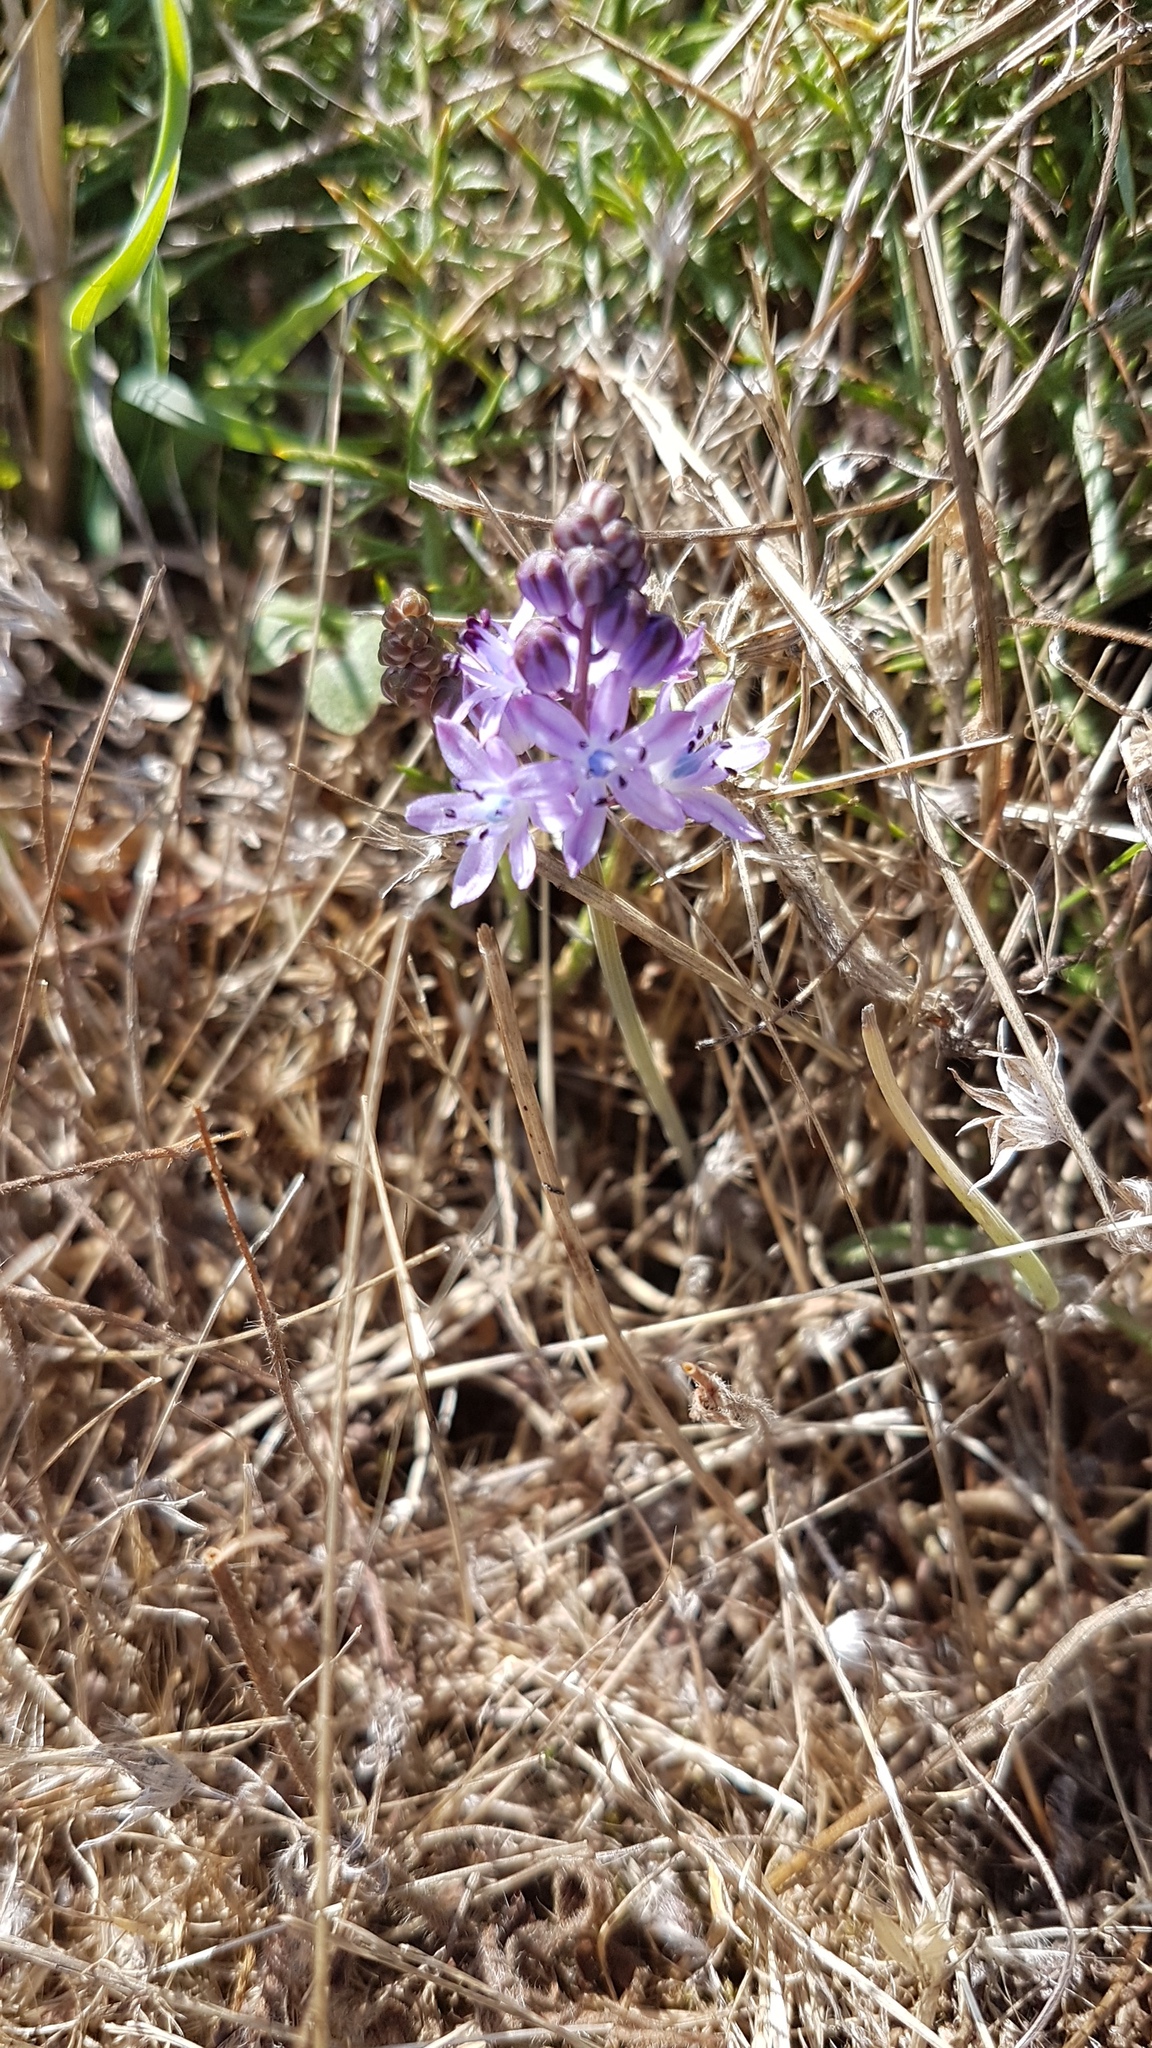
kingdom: Plantae
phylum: Tracheophyta
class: Liliopsida
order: Asparagales
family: Asparagaceae
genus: Prospero
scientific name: Prospero autumnale
